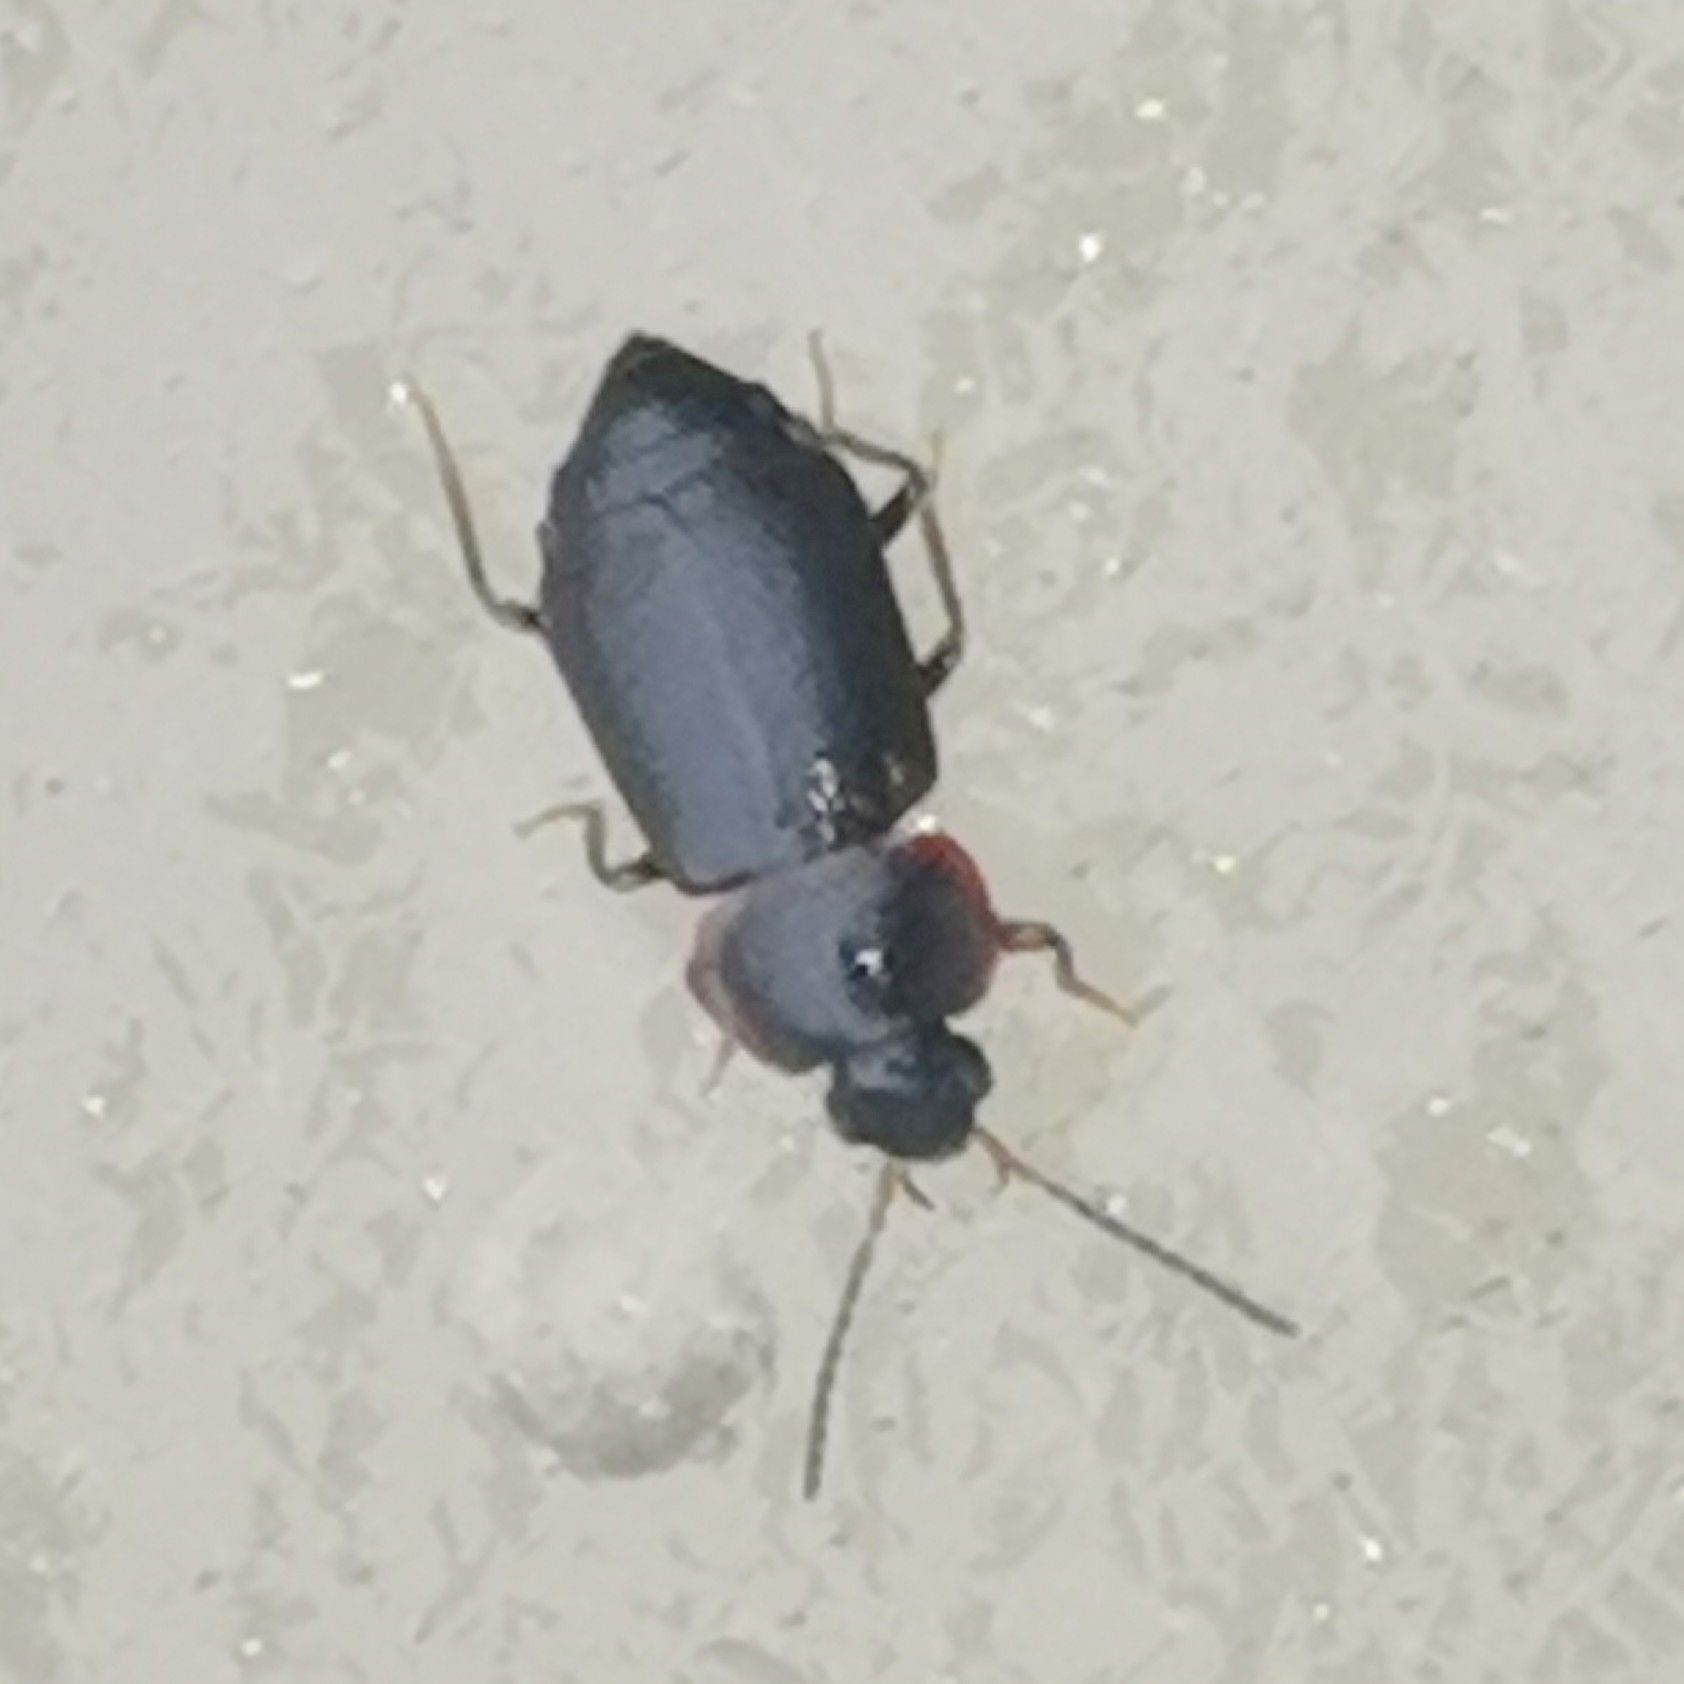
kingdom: Animalia
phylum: Arthropoda
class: Insecta
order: Coleoptera
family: Staphylinidae
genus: Olophrum
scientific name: Olophrum fuscum
